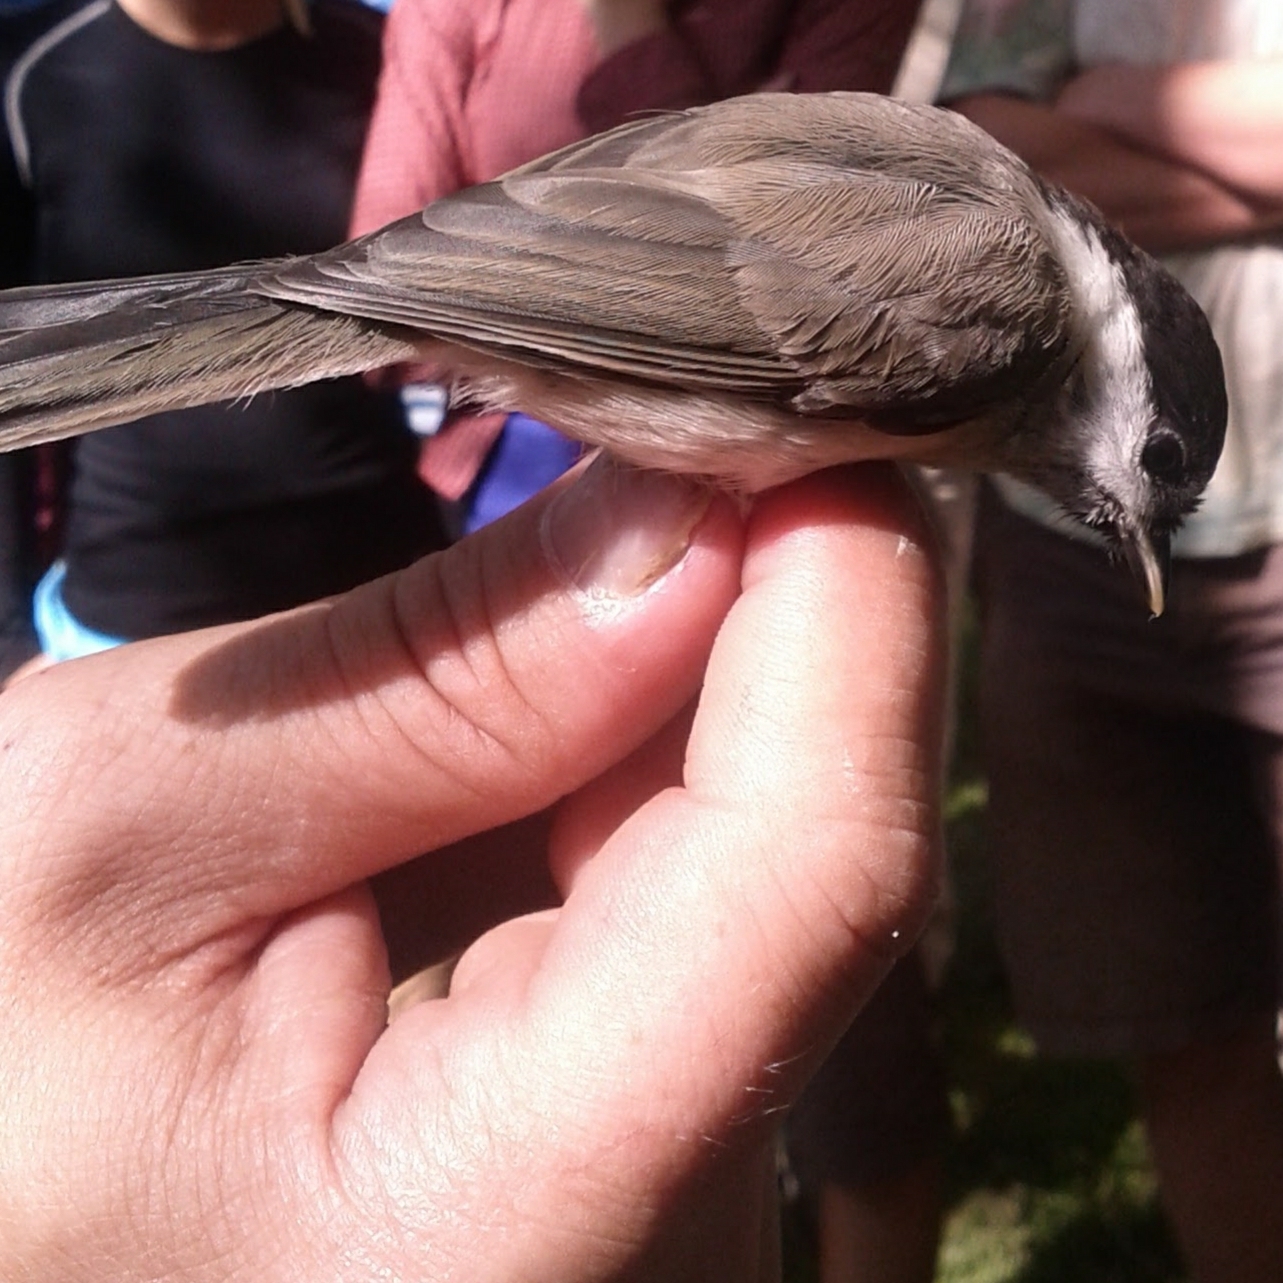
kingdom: Animalia
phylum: Chordata
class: Aves
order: Passeriformes
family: Paridae
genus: Poecile
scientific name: Poecile palustris
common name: Marsh tit
